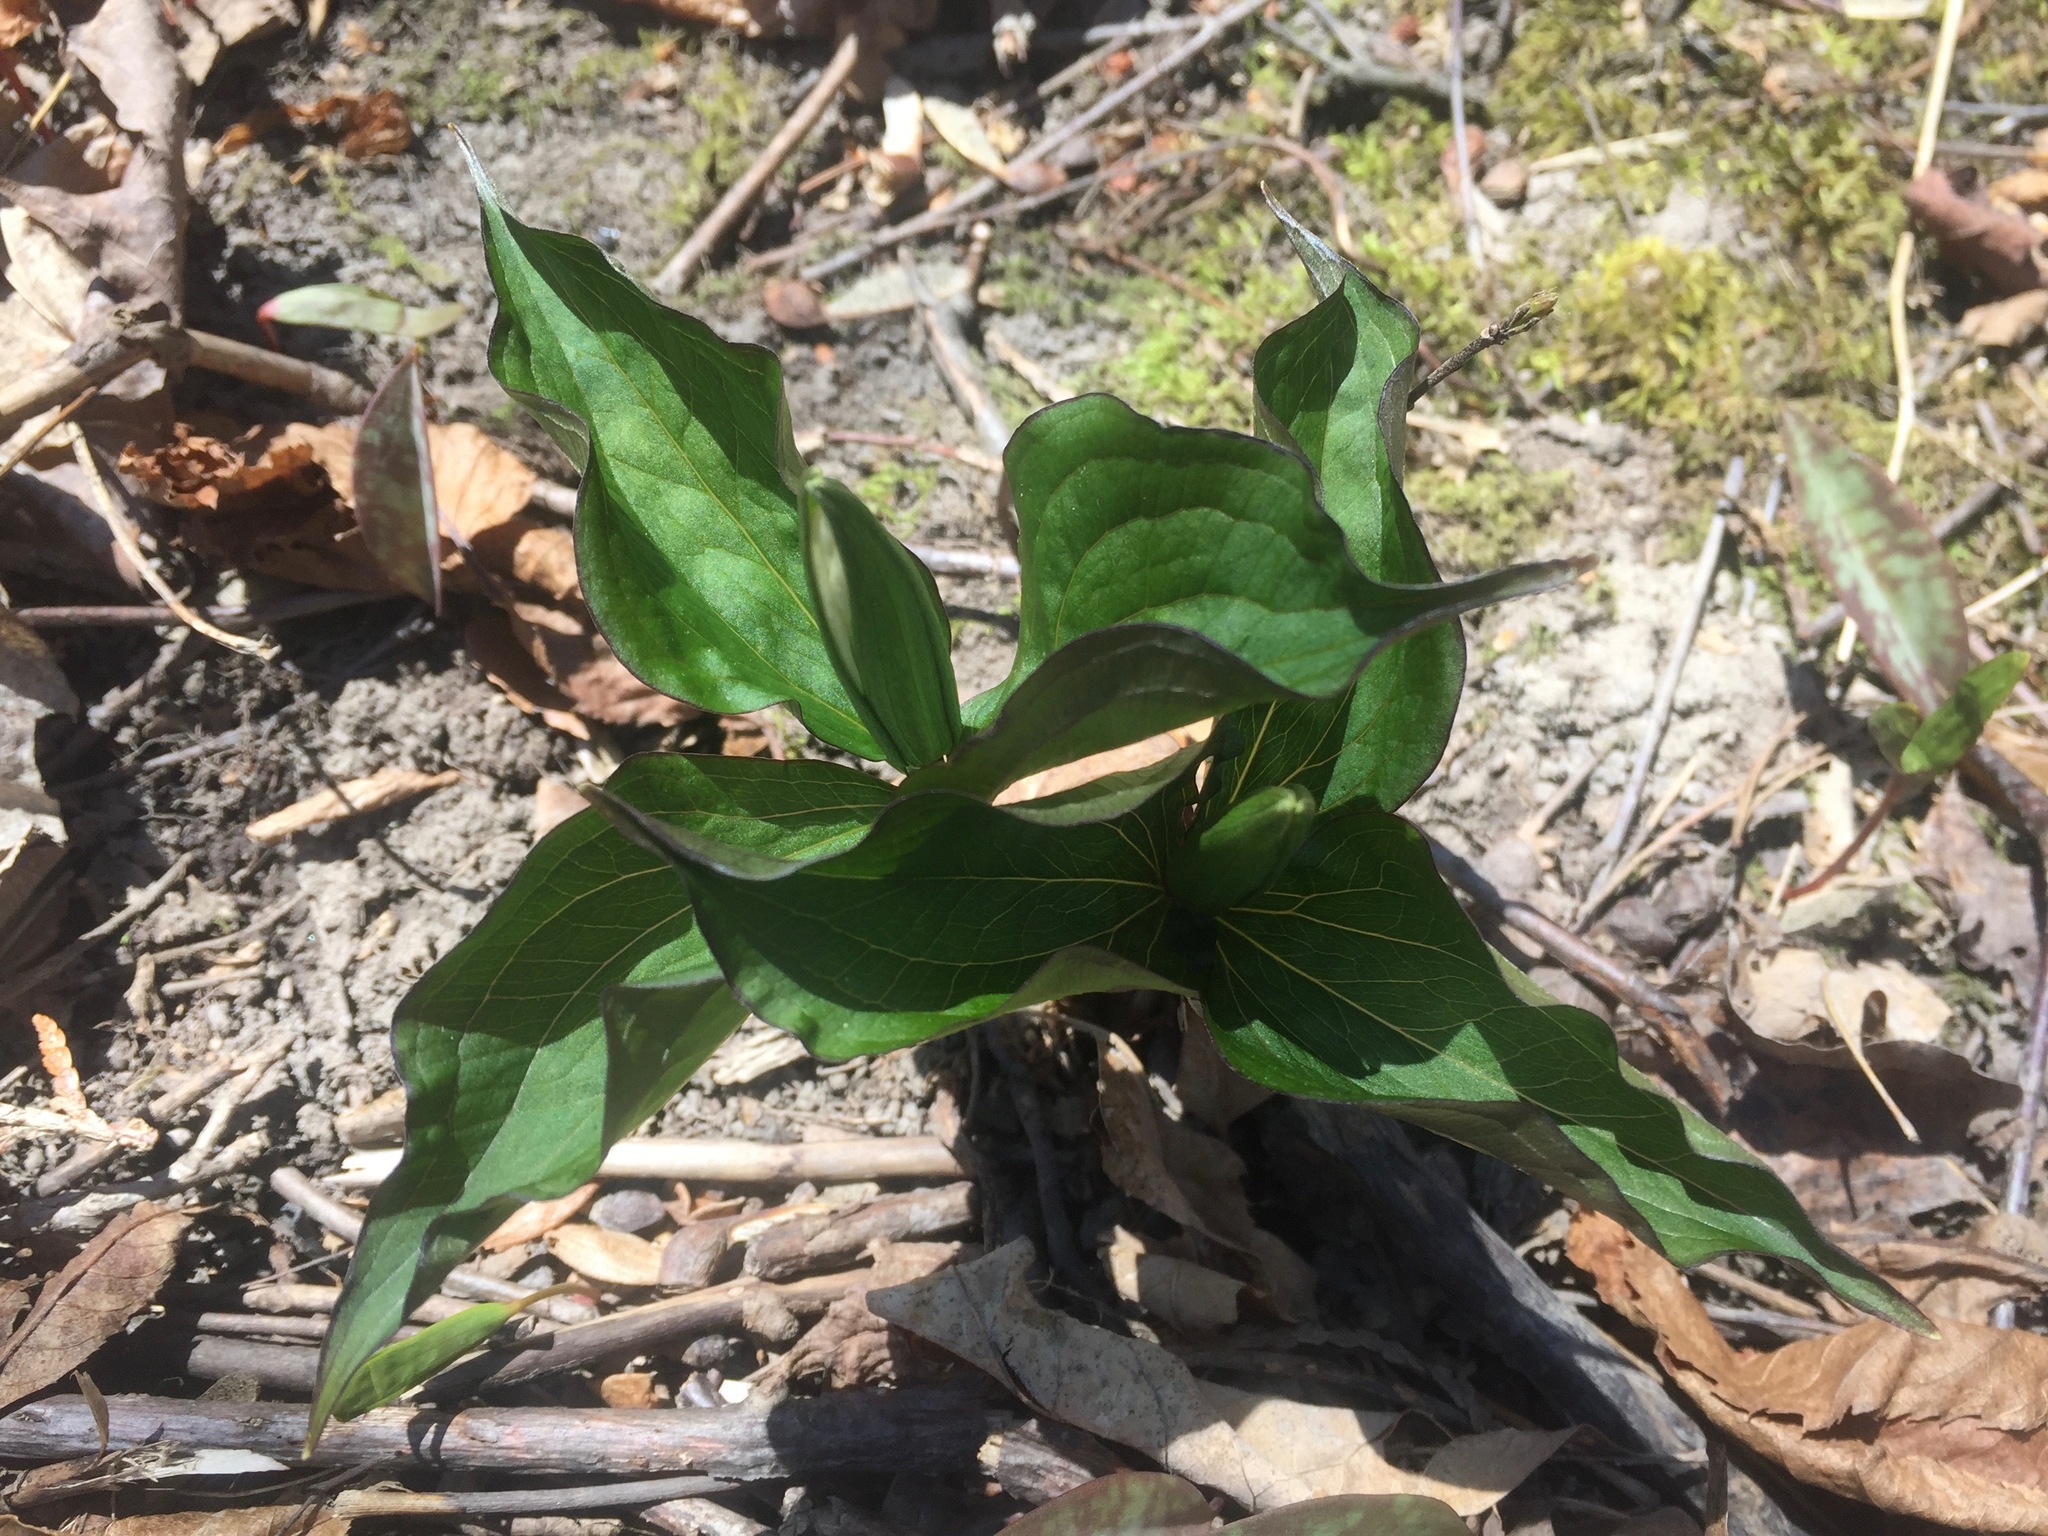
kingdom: Plantae
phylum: Tracheophyta
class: Liliopsida
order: Liliales
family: Melanthiaceae
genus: Trillium
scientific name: Trillium grandiflorum
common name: Great white trillium
